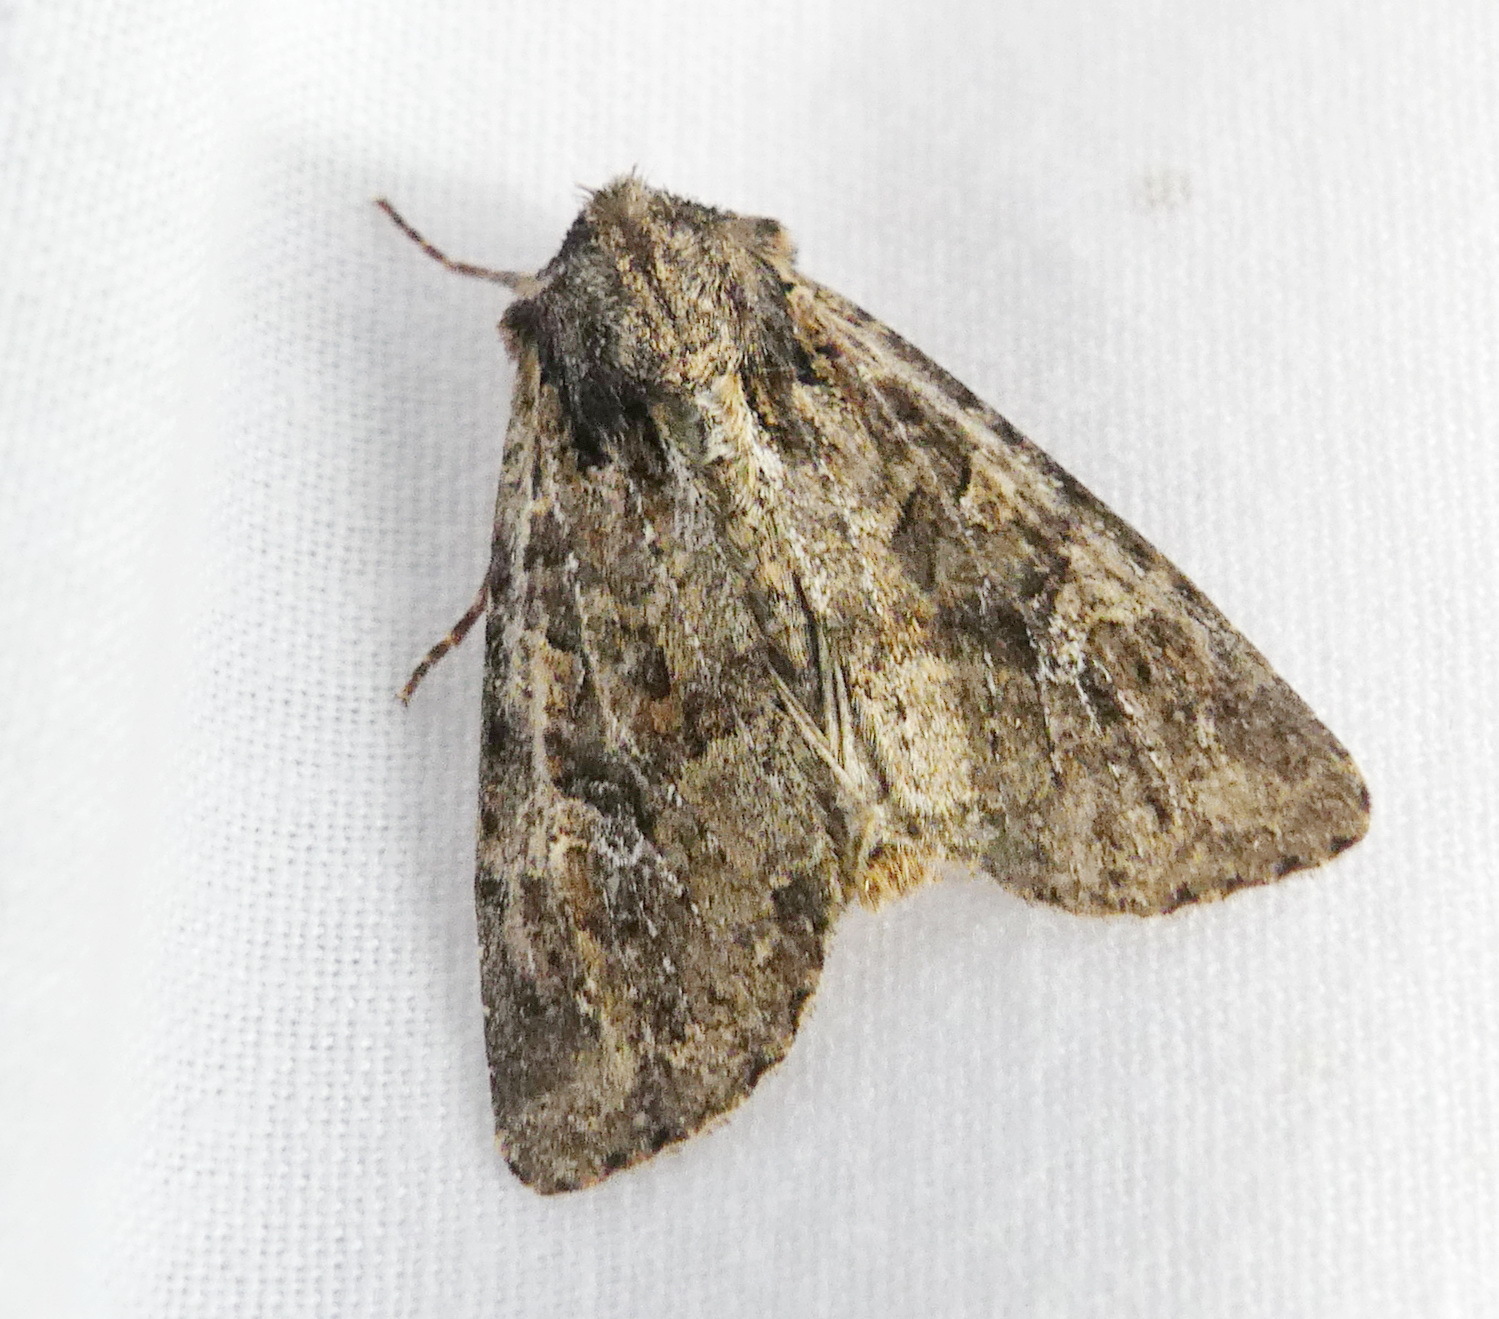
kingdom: Animalia
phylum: Arthropoda
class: Insecta
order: Lepidoptera
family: Noctuidae
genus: Apamea
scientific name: Apamea unanimis
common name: Small clouded brindle
